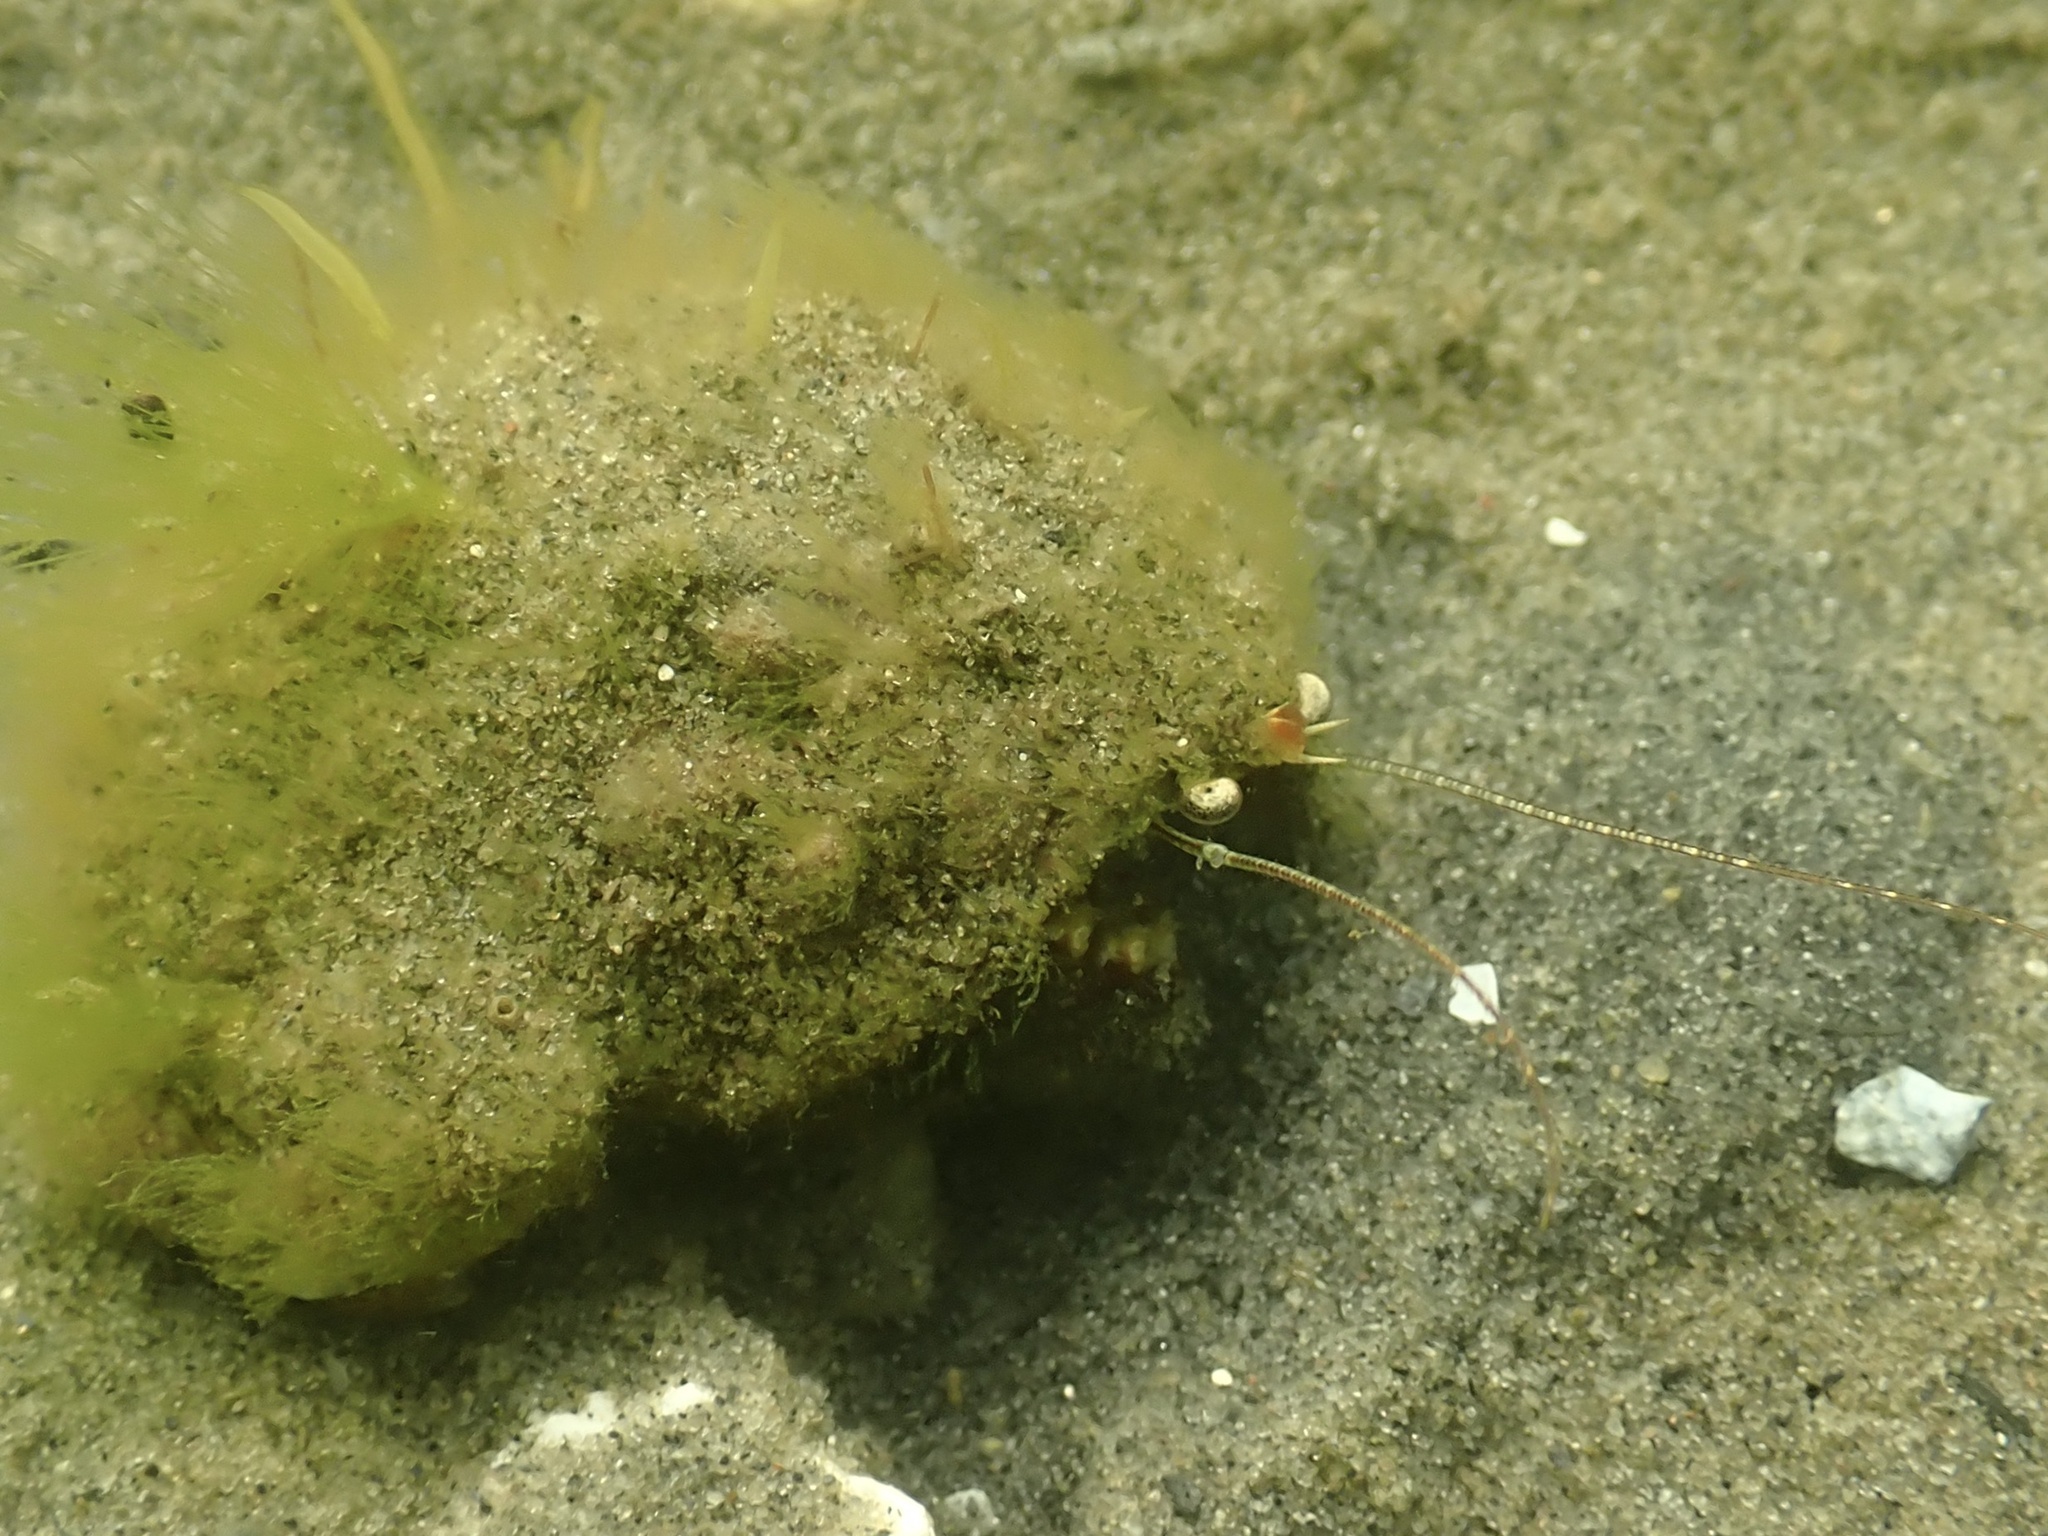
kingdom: Animalia
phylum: Arthropoda
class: Malacostraca
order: Decapoda
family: Paguridae
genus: Pagurus
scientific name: Pagurus pollicaris
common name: Flatclaw hermit
